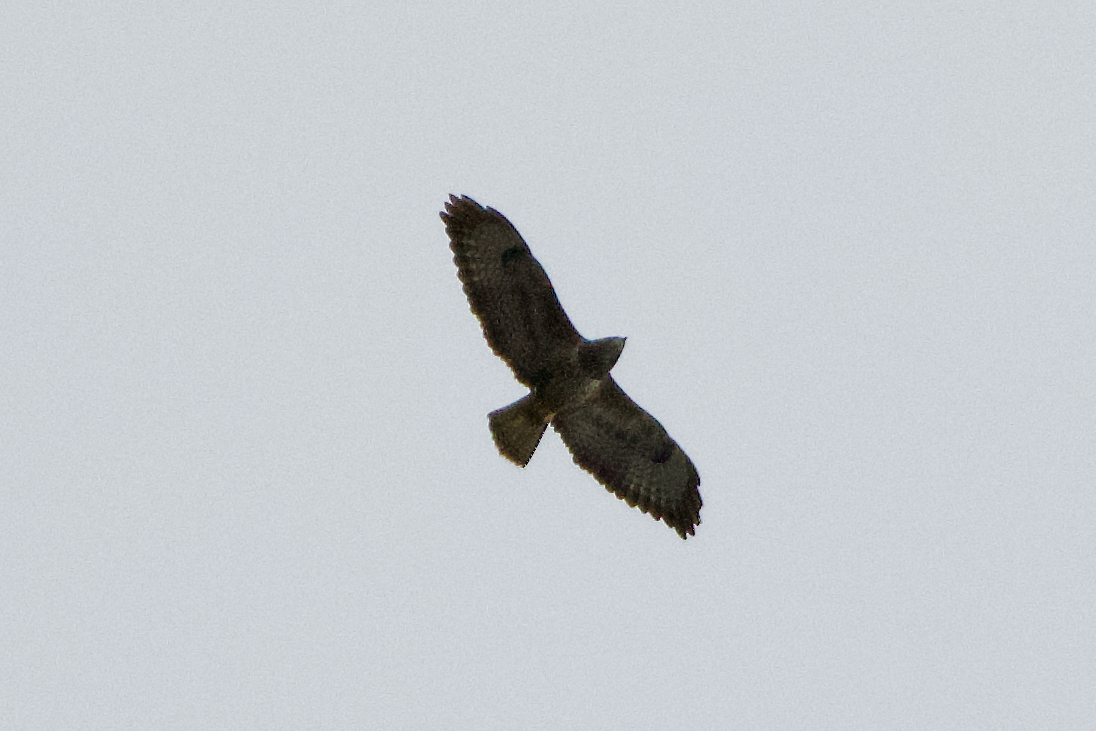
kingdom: Animalia
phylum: Chordata
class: Aves
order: Accipitriformes
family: Accipitridae
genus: Buteo
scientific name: Buteo buteo
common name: Common buzzard
